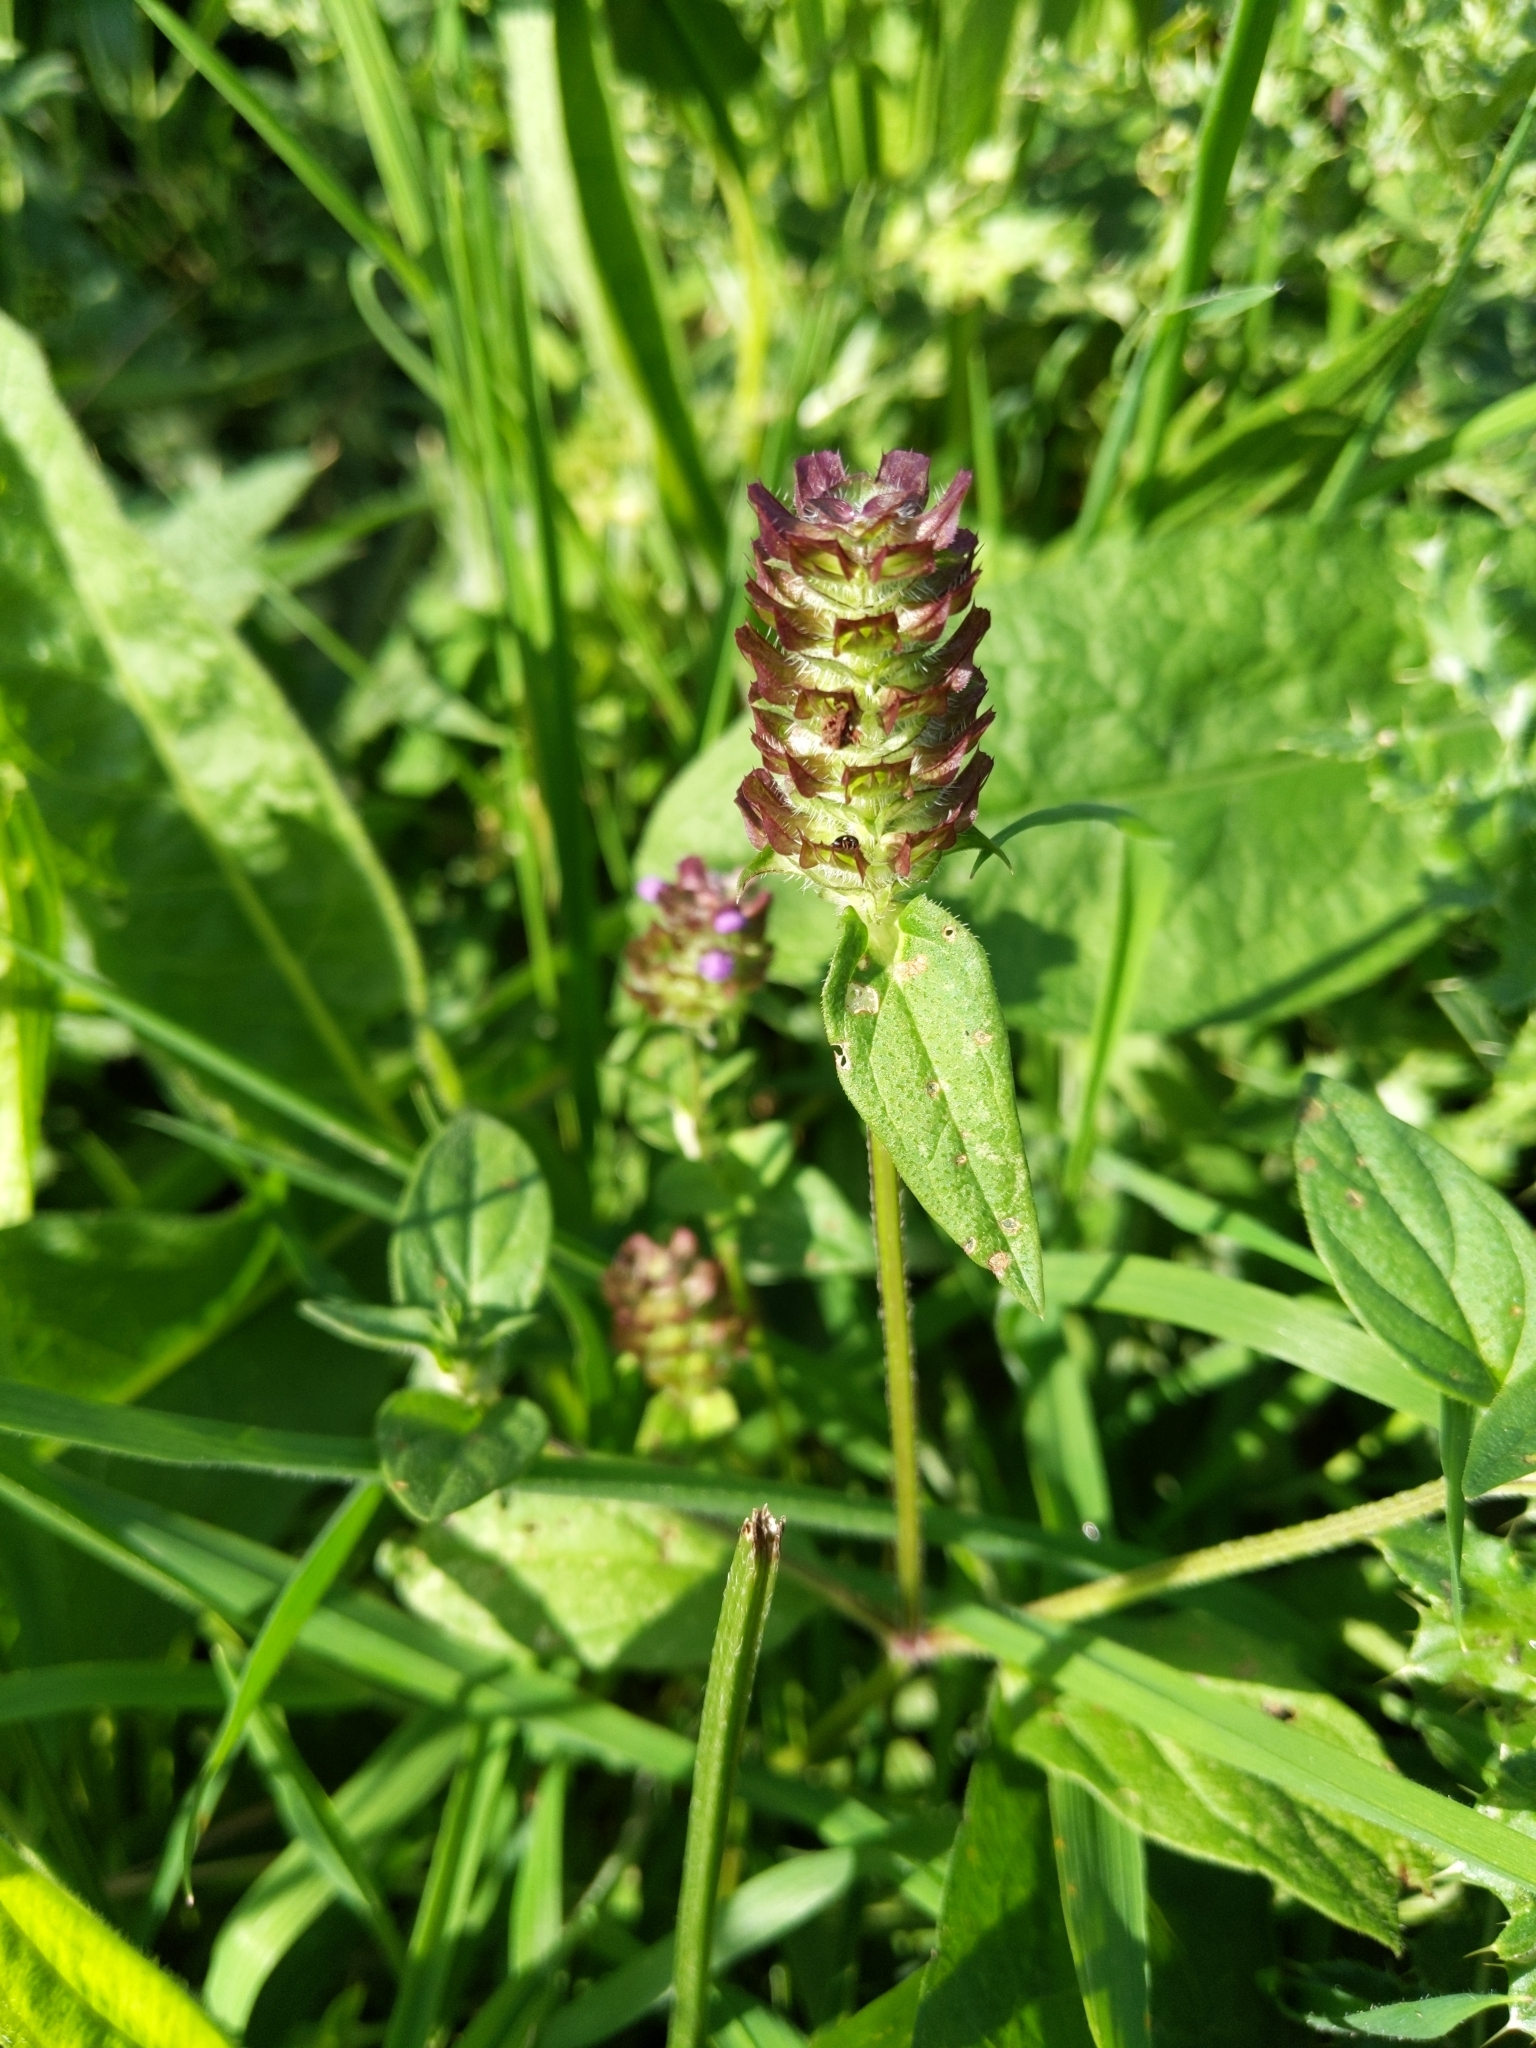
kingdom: Plantae
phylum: Tracheophyta
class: Magnoliopsida
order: Lamiales
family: Lamiaceae
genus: Prunella
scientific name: Prunella vulgaris
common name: Heal-all
